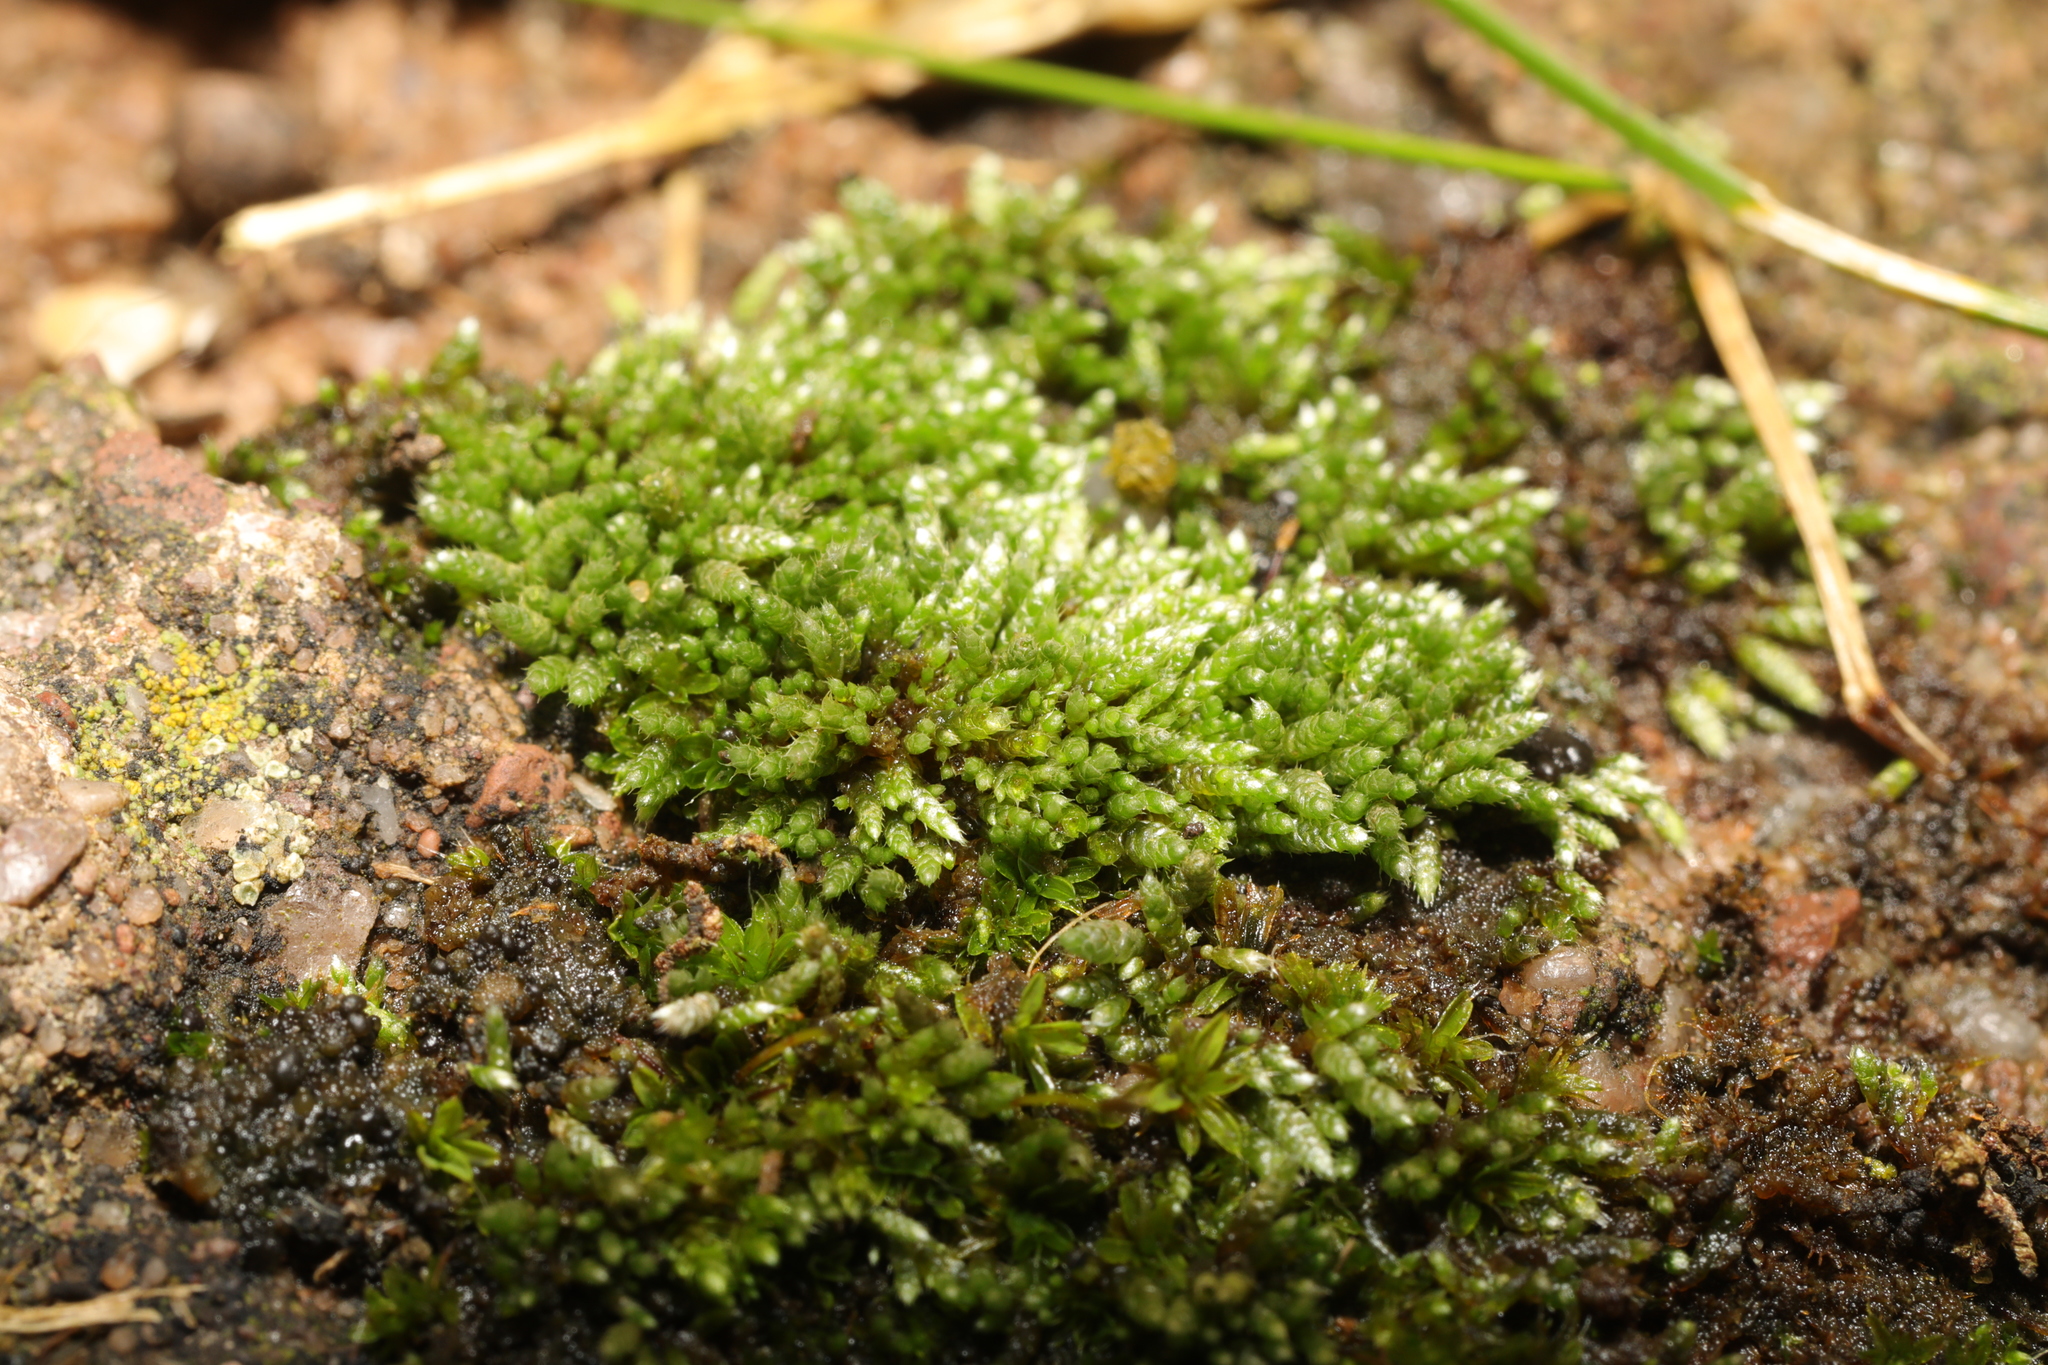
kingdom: Plantae
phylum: Bryophyta
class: Bryopsida
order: Bryales
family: Bryaceae
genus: Bryum
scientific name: Bryum argenteum
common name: Silver-moss
